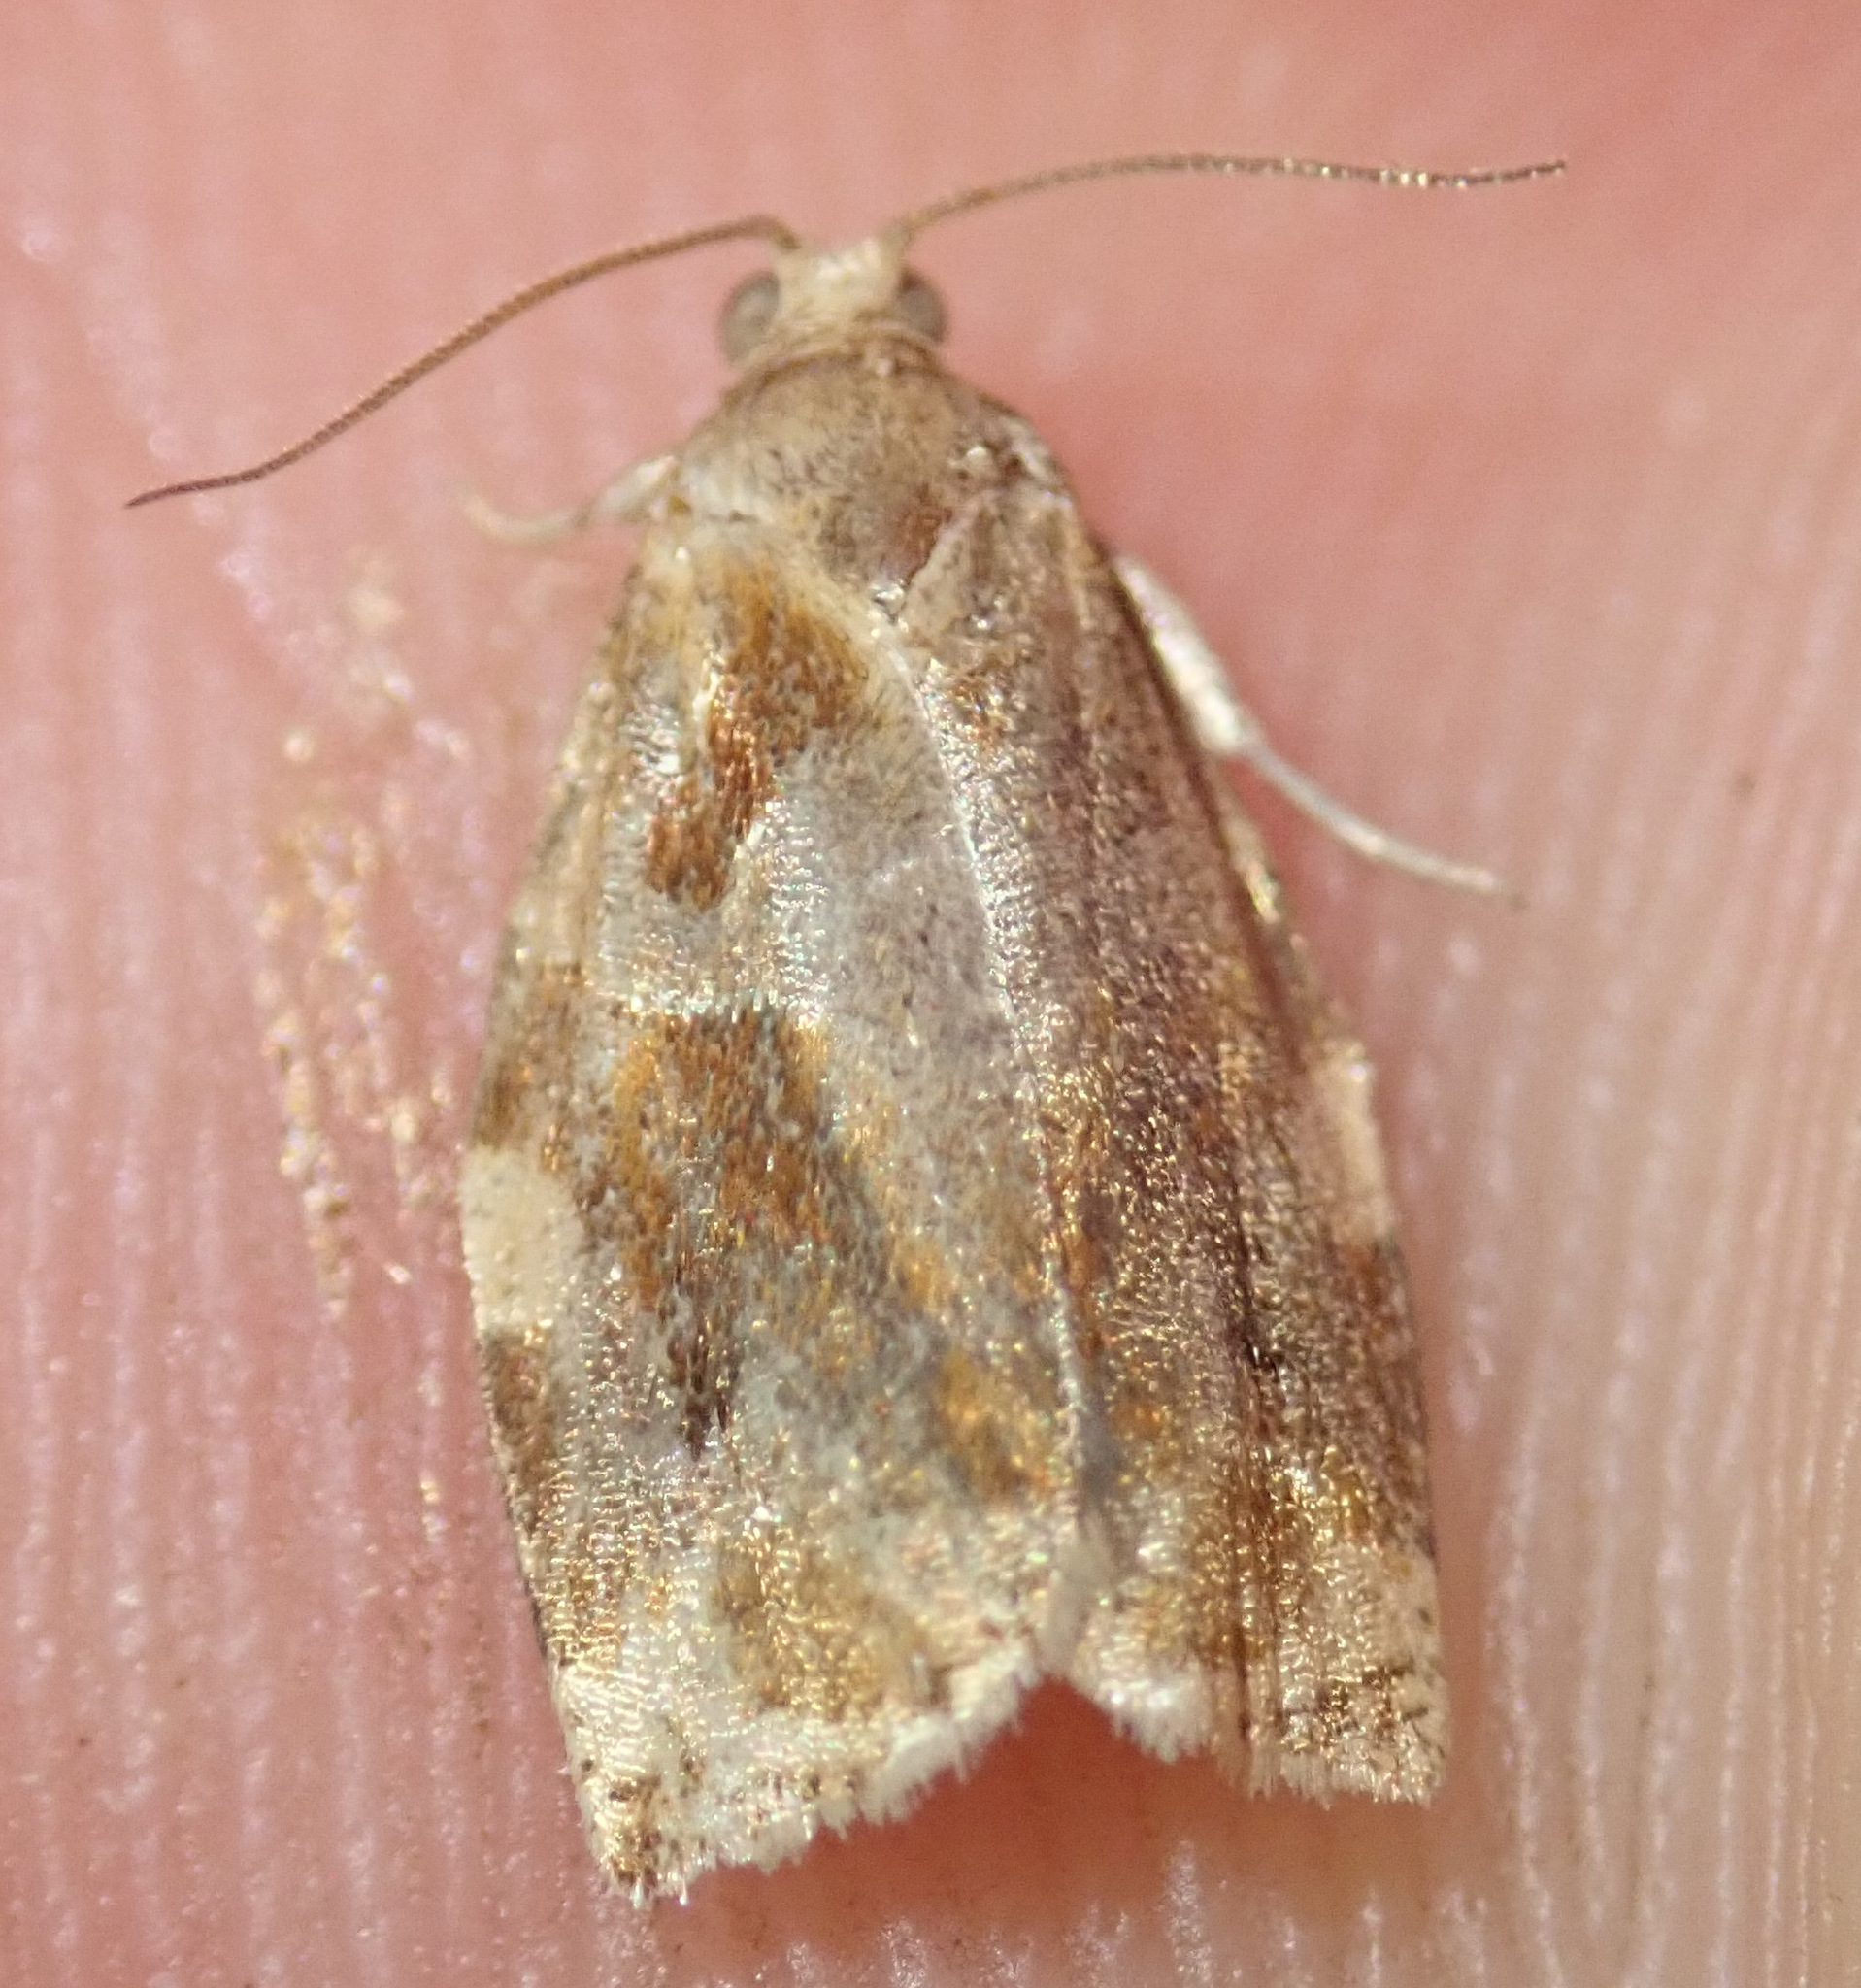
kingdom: Animalia
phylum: Arthropoda
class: Insecta
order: Lepidoptera
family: Tortricidae
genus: Archips
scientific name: Archips xylosteana
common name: Variegated golden tortrix
